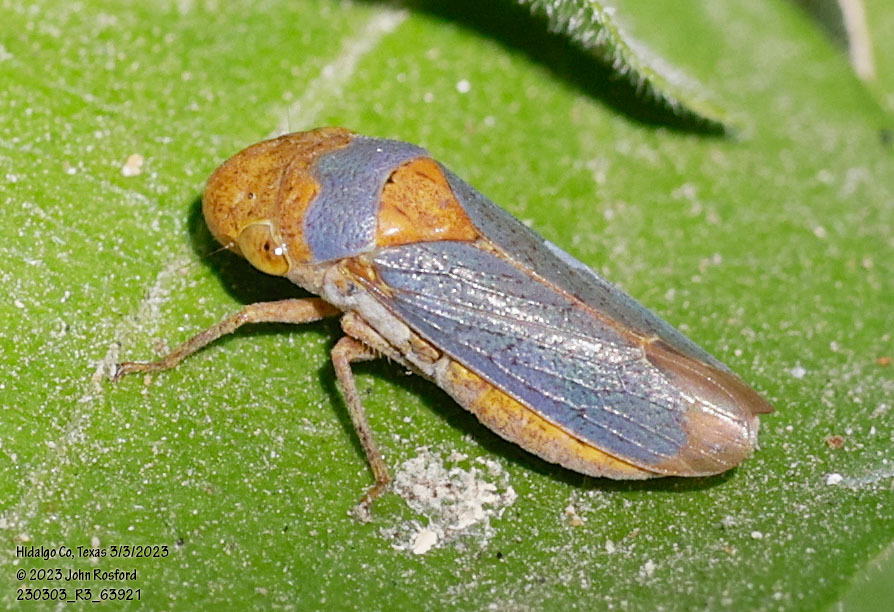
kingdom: Animalia
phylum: Arthropoda
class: Insecta
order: Hemiptera
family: Cicadellidae
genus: Oncometopia
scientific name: Oncometopia hamiltoni
